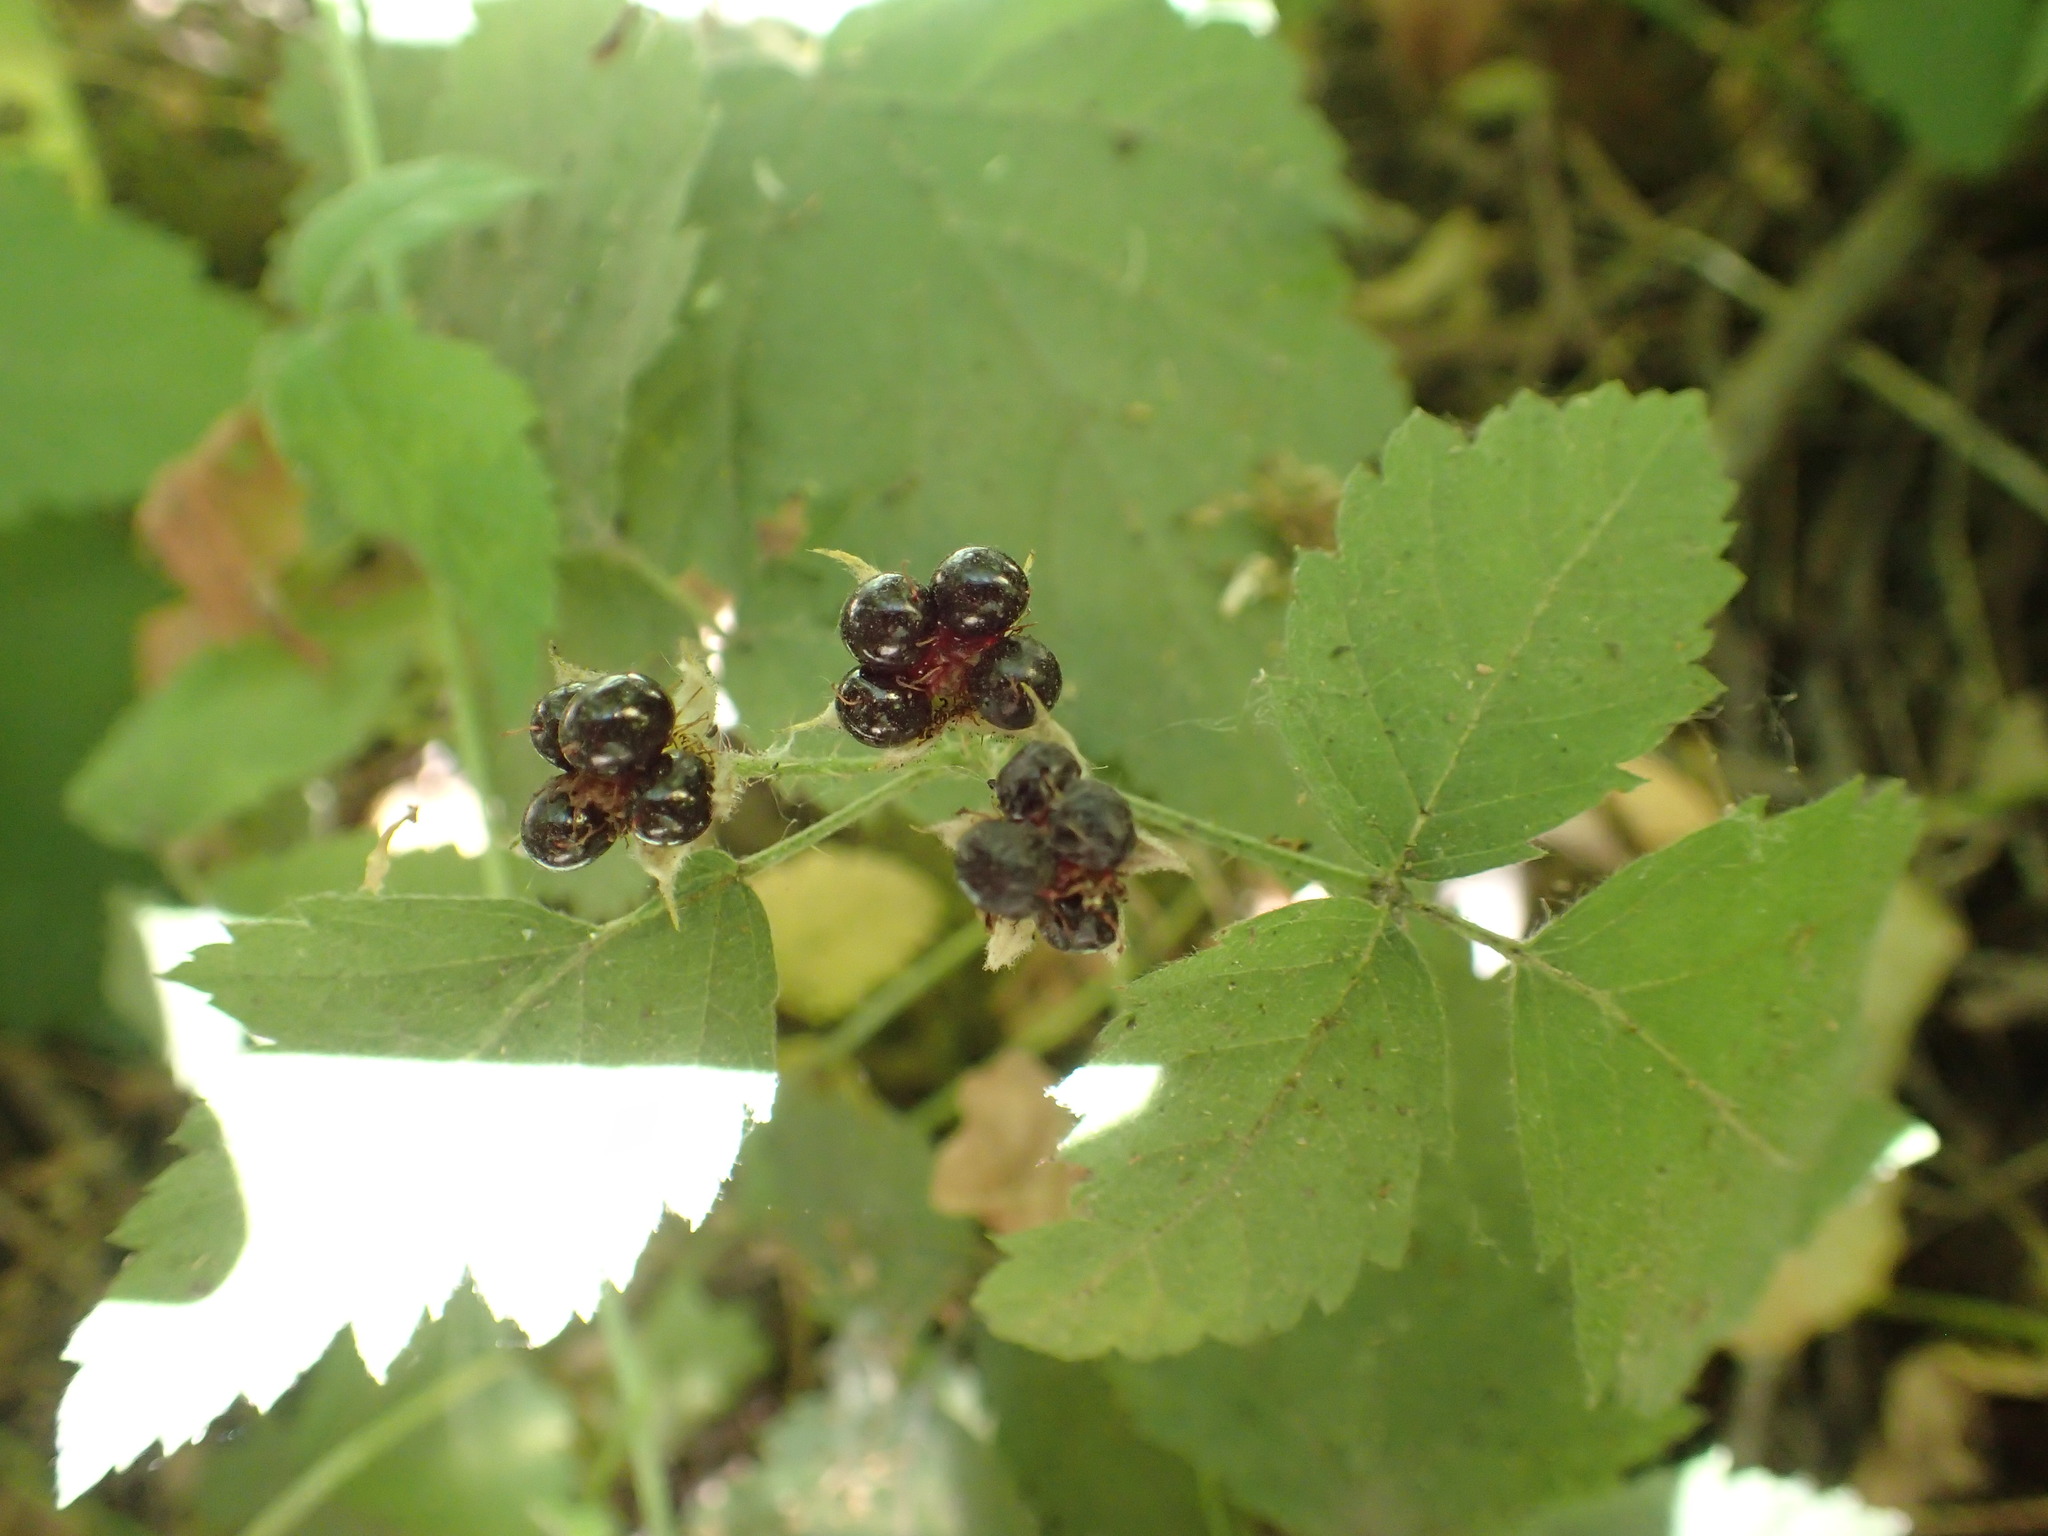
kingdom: Plantae
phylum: Tracheophyta
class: Magnoliopsida
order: Rosales
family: Rosaceae
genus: Rubus
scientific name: Rubus ursinus
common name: Pacific blackberry
